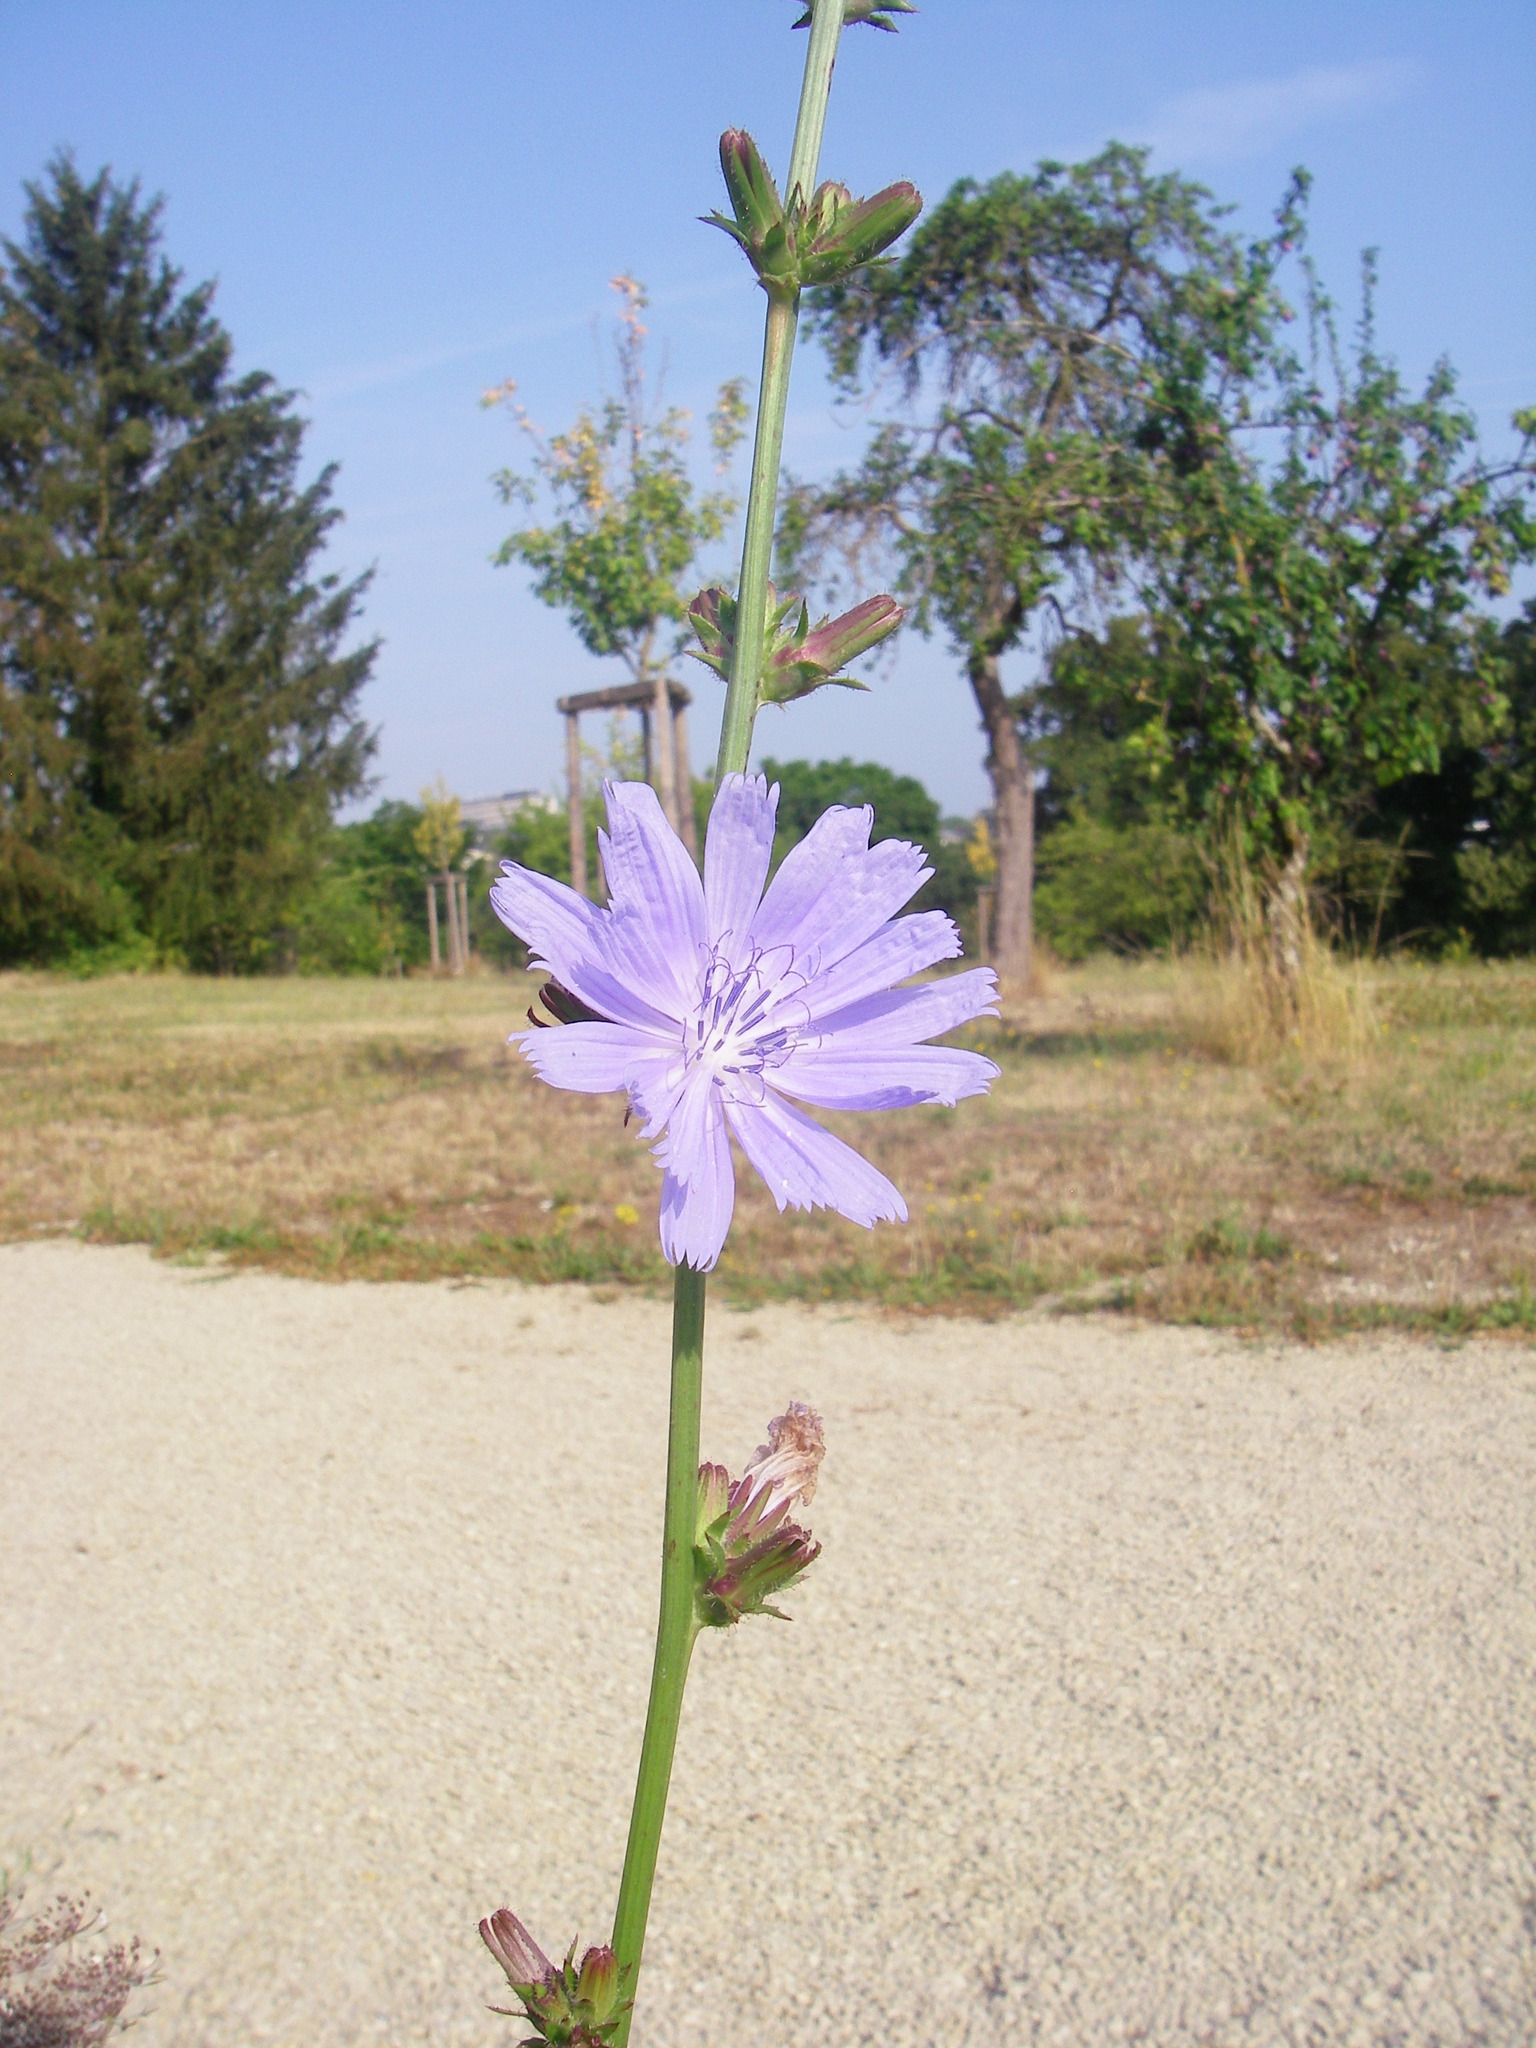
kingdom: Plantae
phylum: Tracheophyta
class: Magnoliopsida
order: Asterales
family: Asteraceae
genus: Cichorium
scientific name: Cichorium intybus
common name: Chicory
